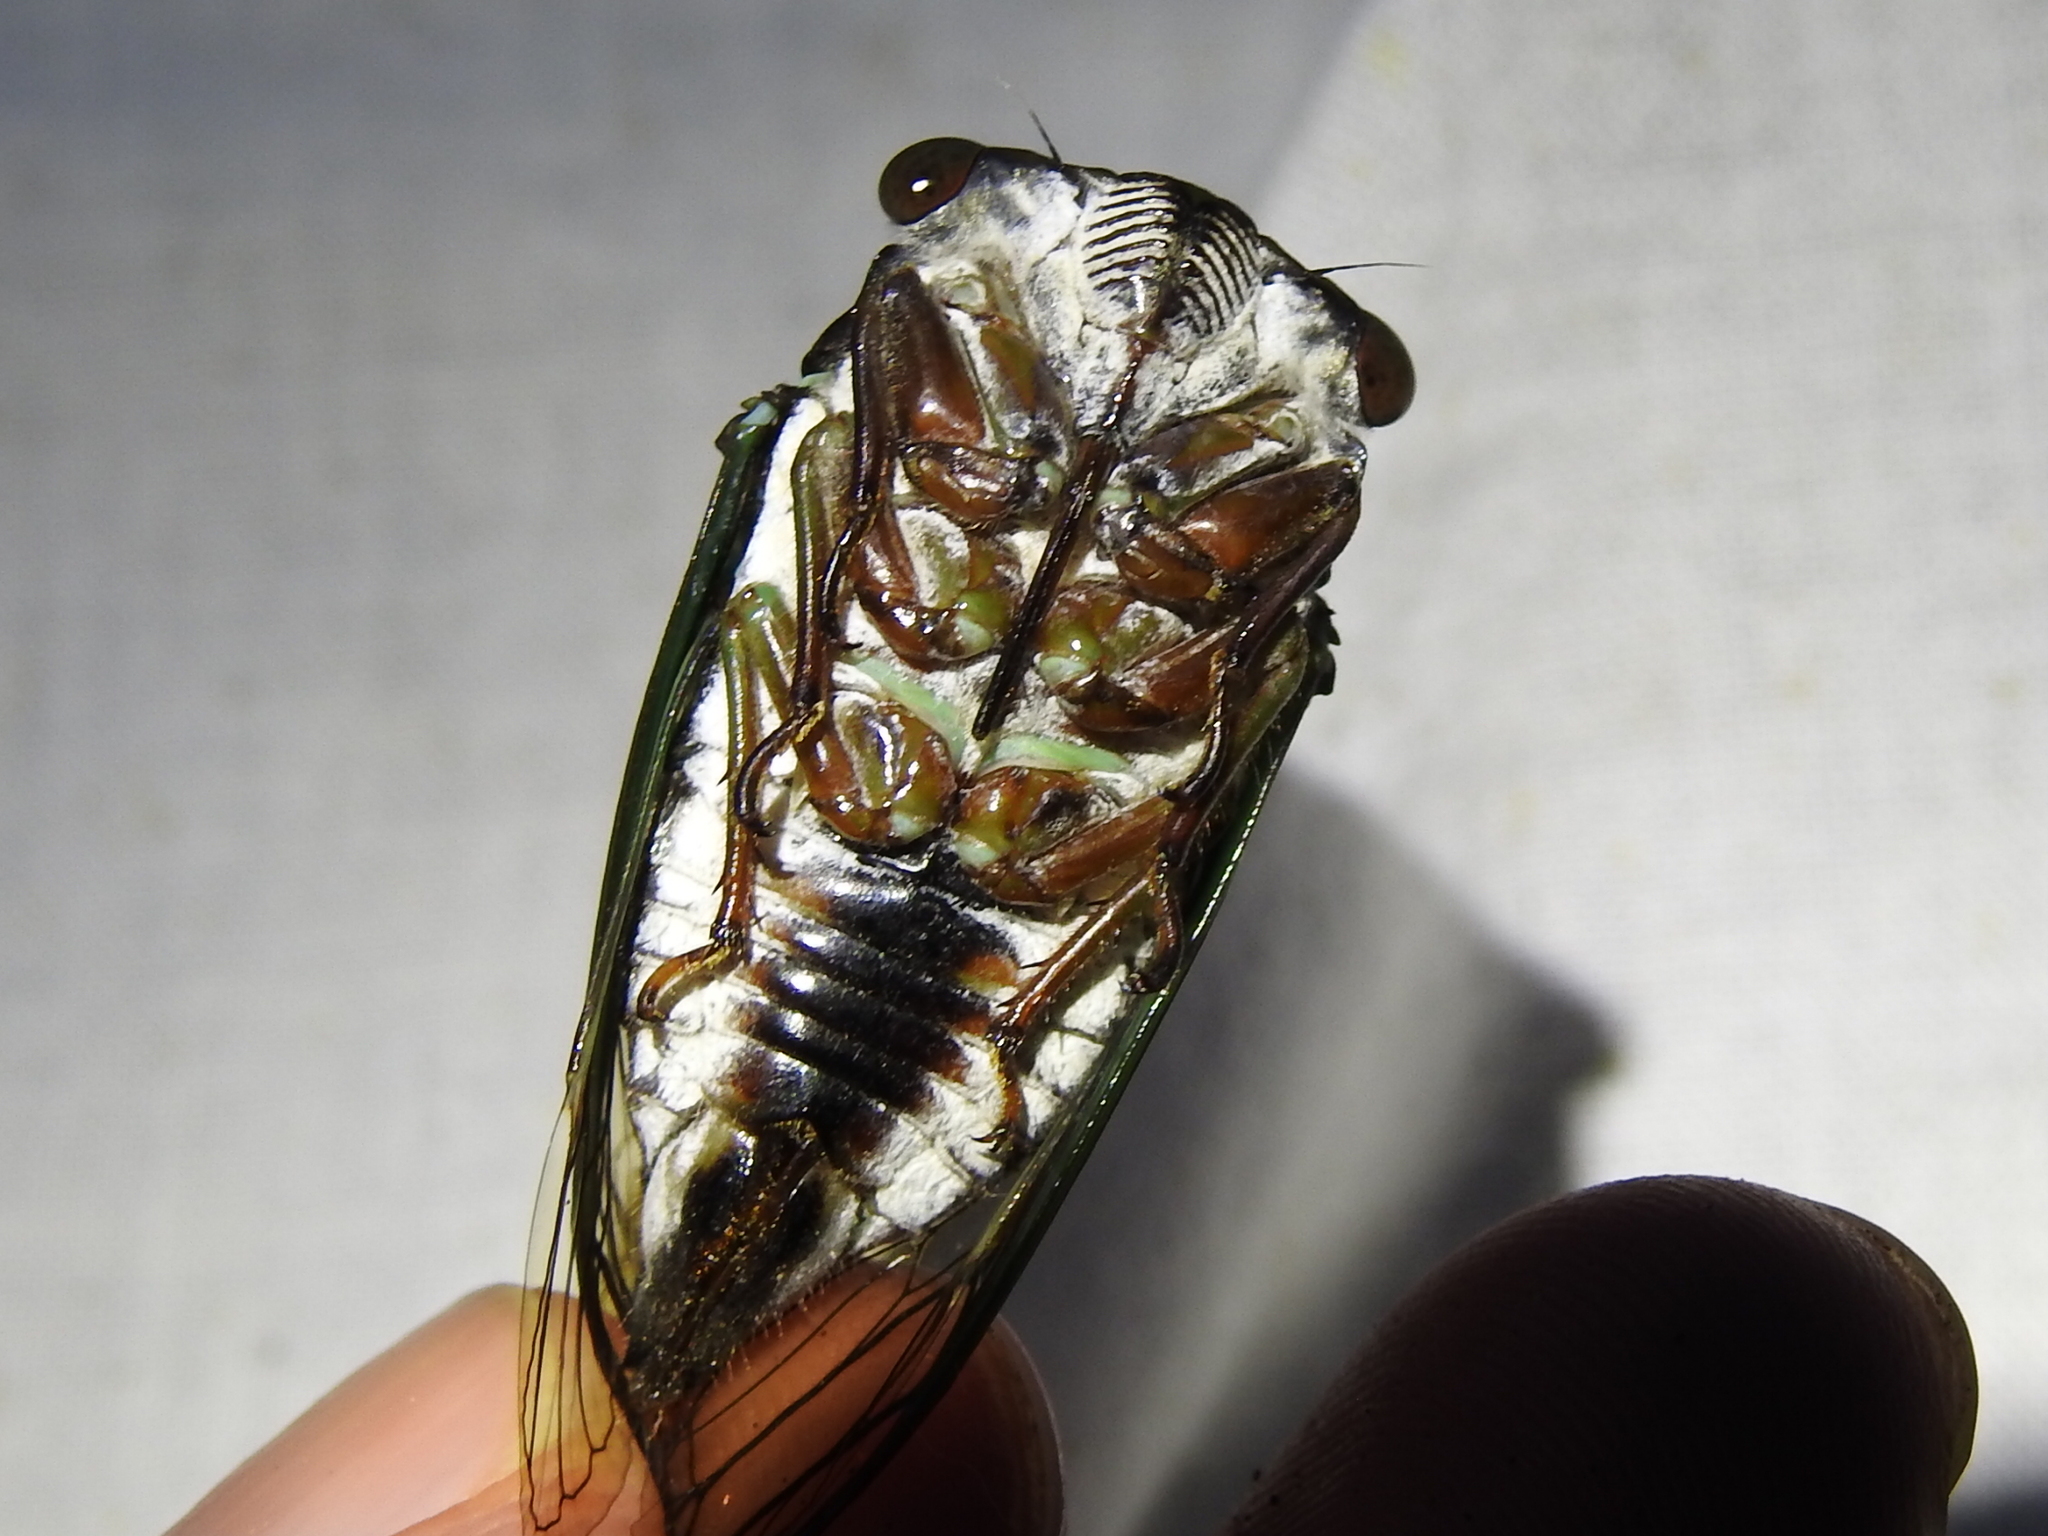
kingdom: Animalia
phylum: Arthropoda
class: Insecta
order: Hemiptera
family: Cicadidae
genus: Neotibicen
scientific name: Neotibicen lyricen
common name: Lyric cicada
